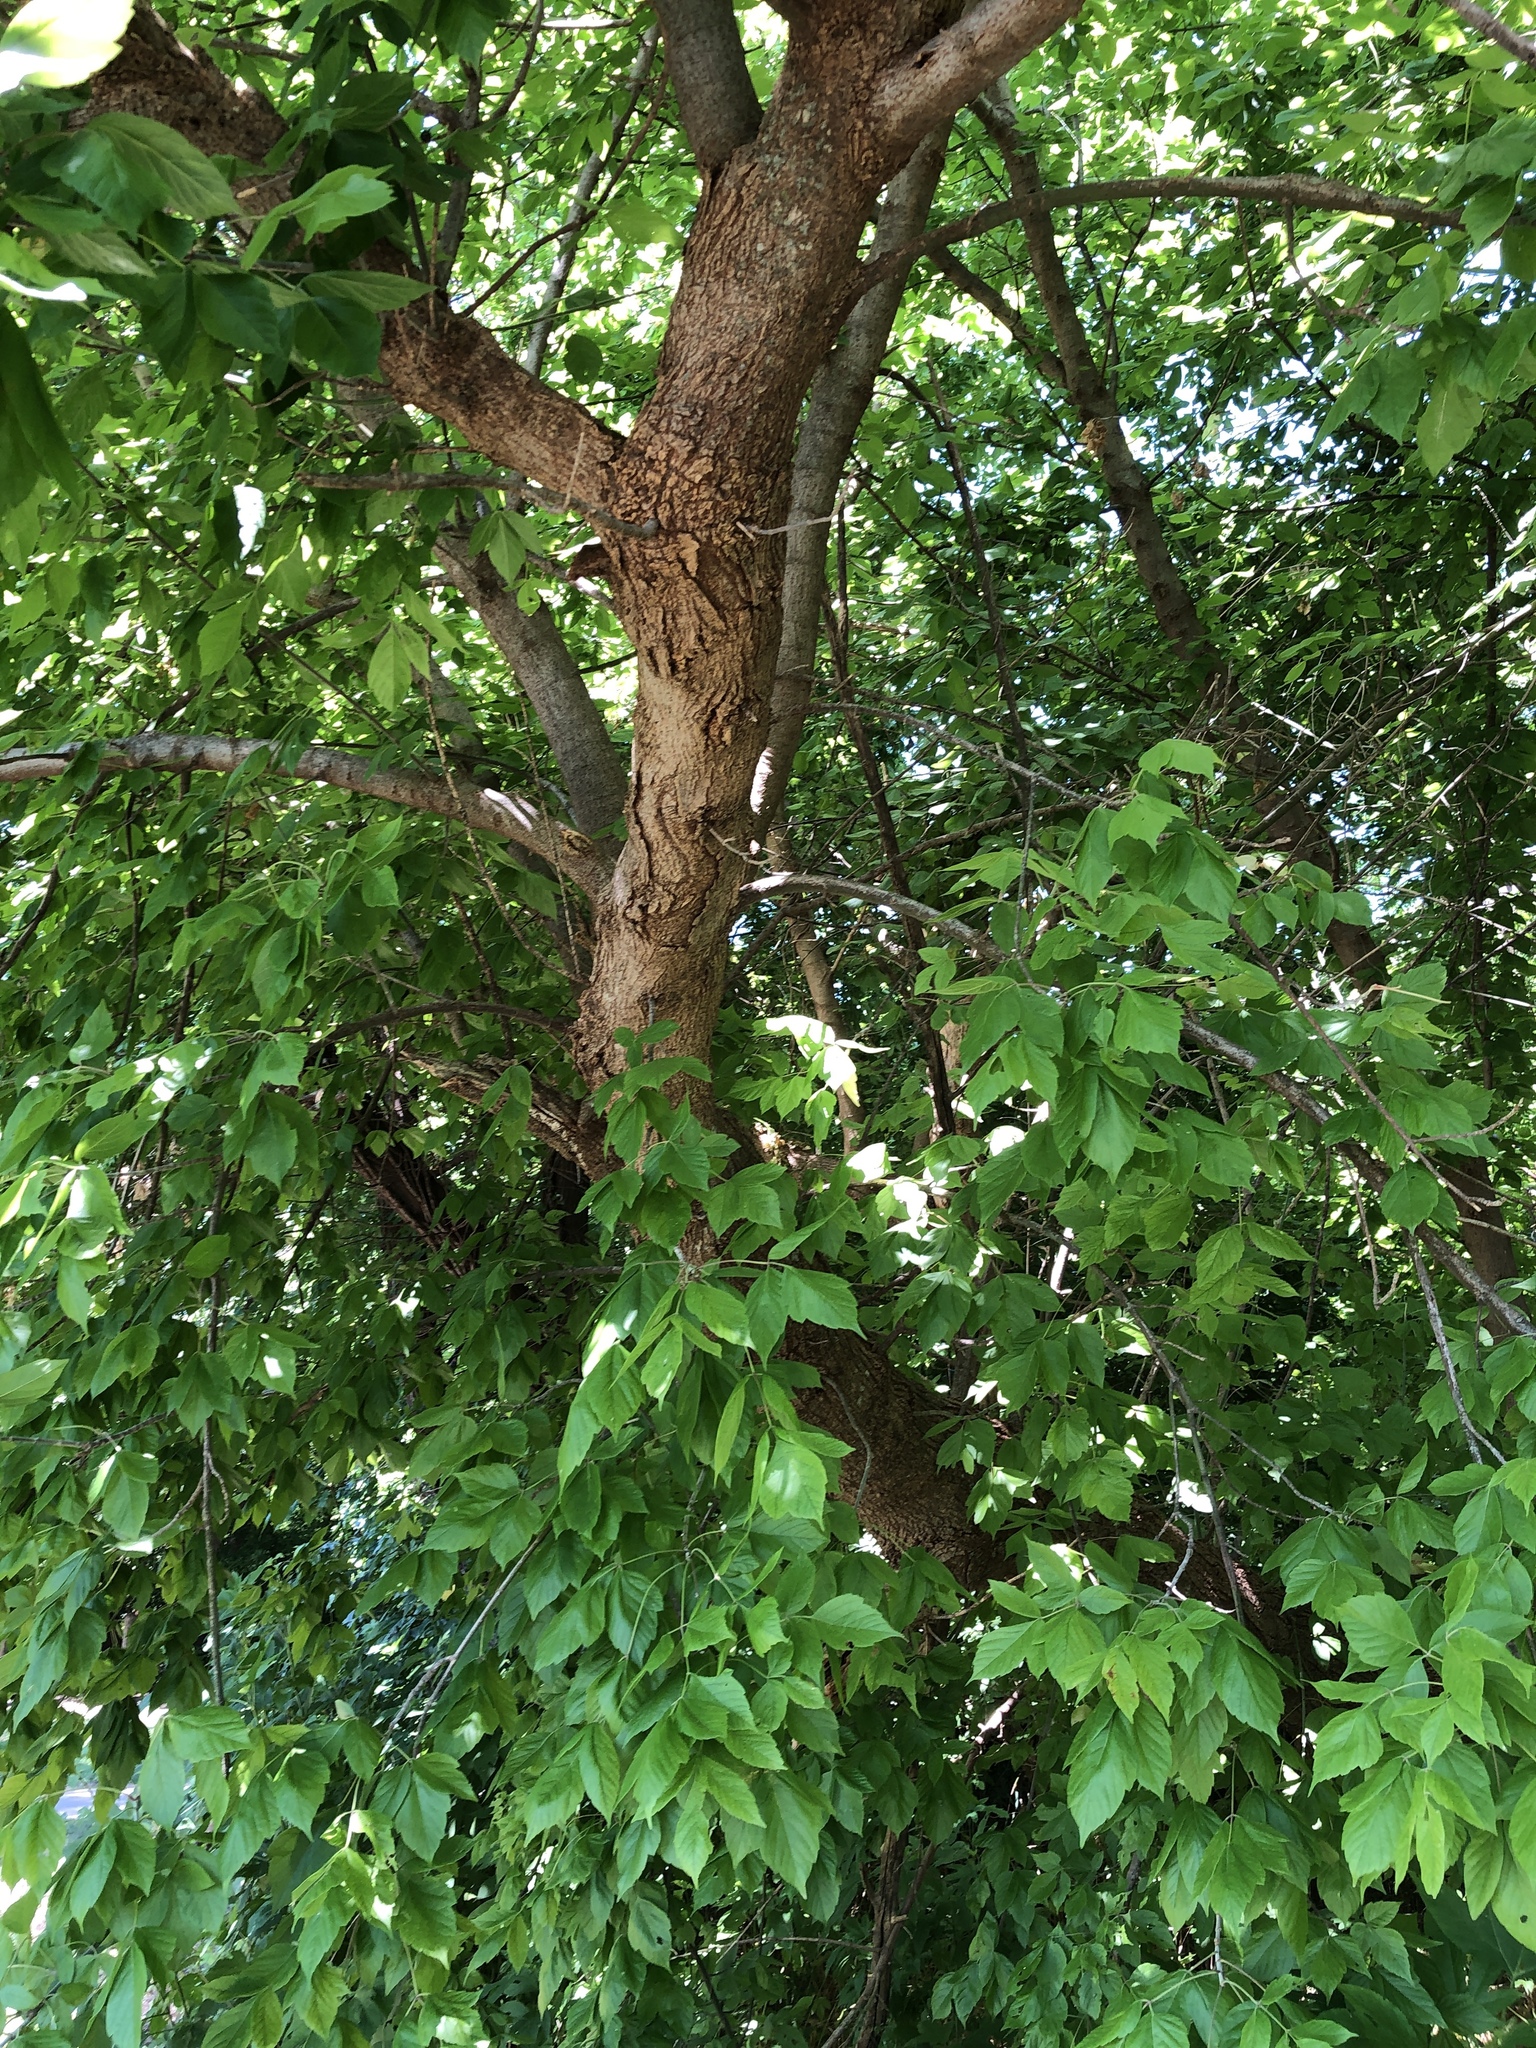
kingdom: Plantae
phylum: Tracheophyta
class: Magnoliopsida
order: Sapindales
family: Sapindaceae
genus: Acer
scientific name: Acer negundo
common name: Ashleaf maple
